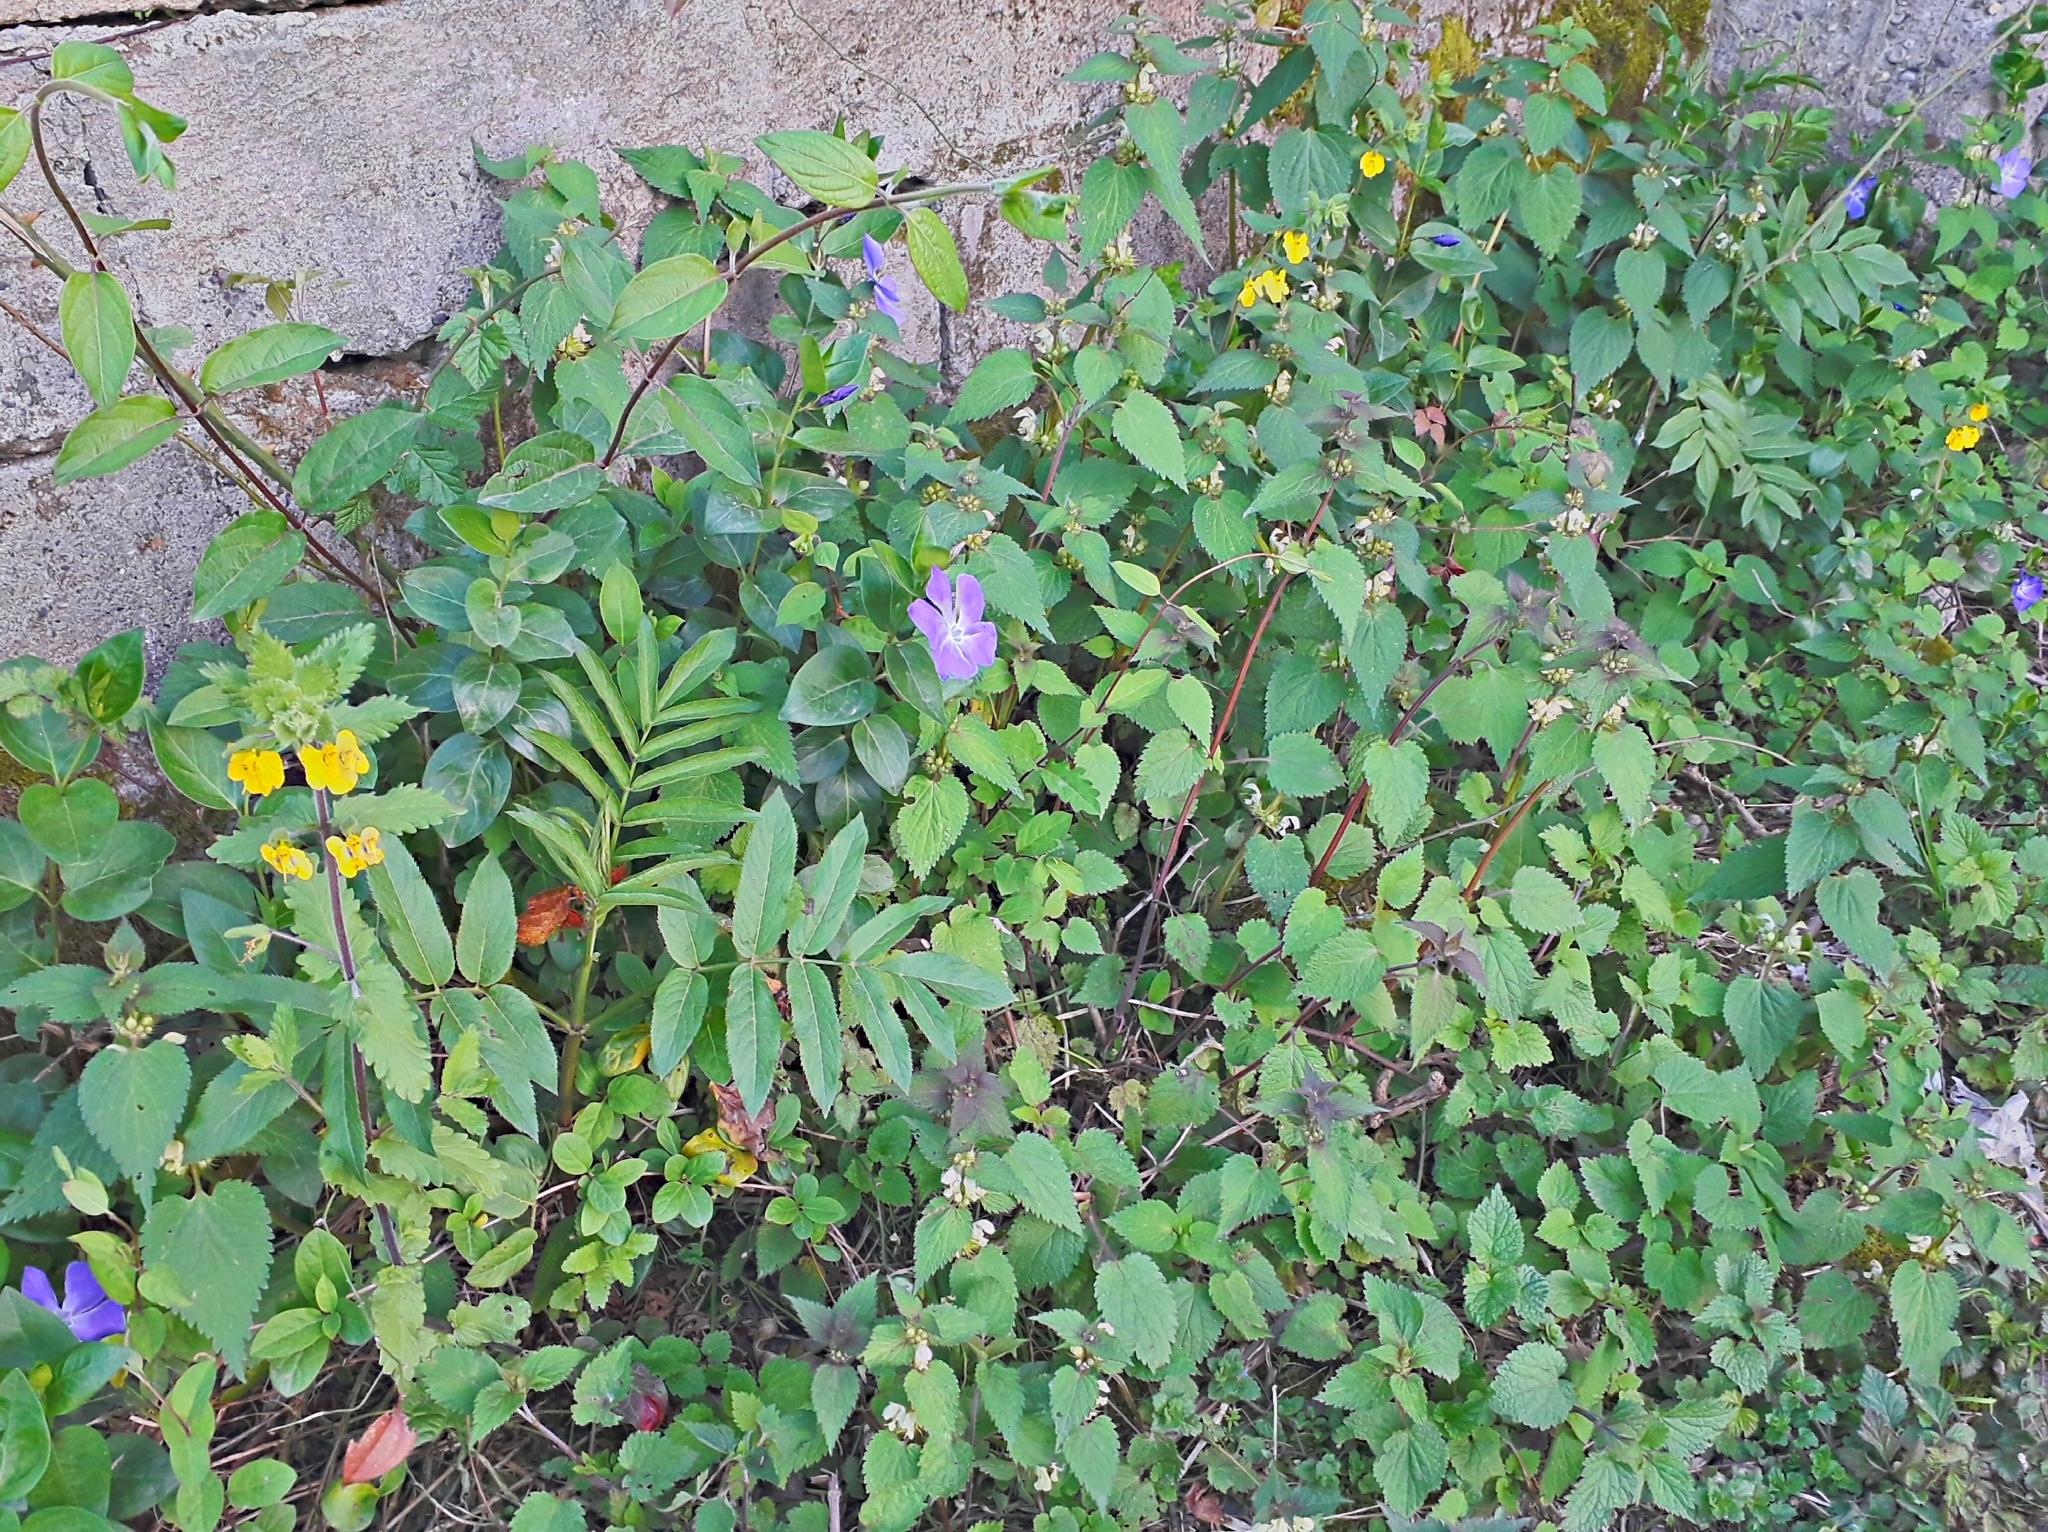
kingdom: Plantae
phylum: Tracheophyta
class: Magnoliopsida
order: Gentianales
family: Apocynaceae
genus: Vinca
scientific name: Vinca major
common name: Greater periwinkle
